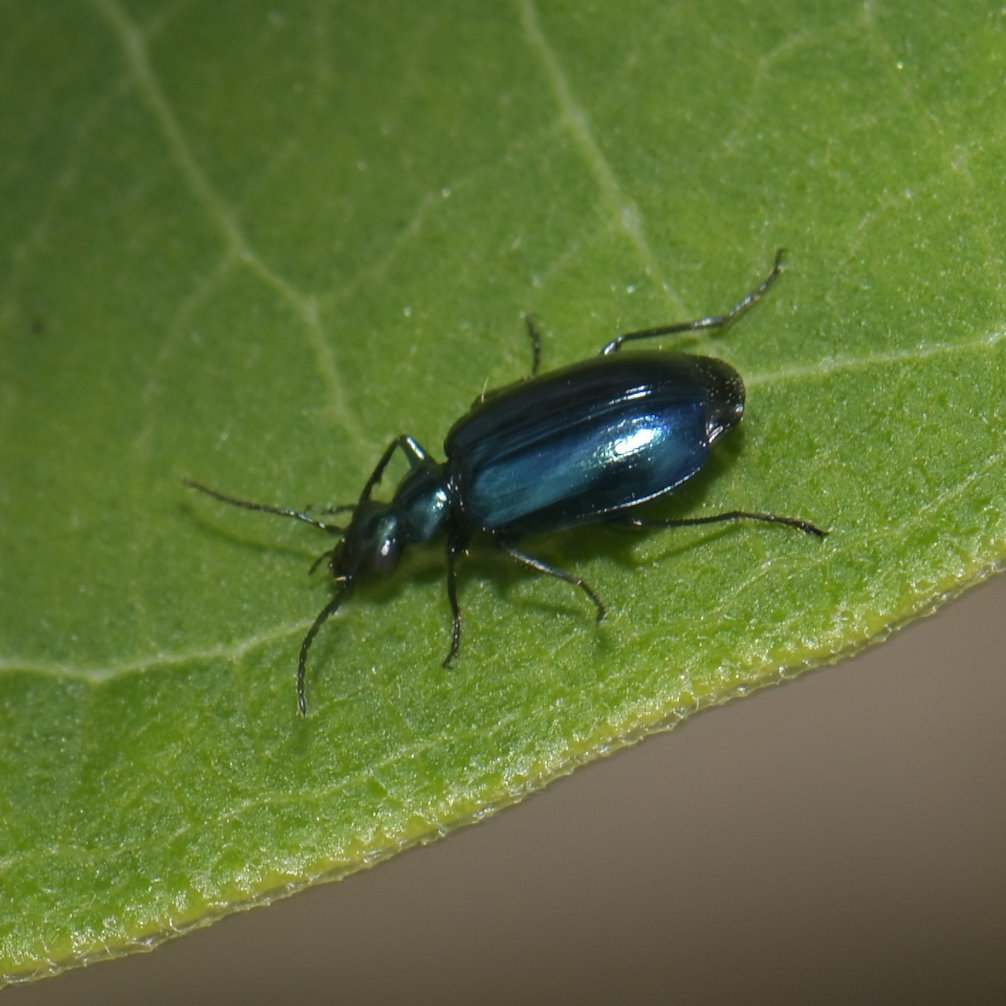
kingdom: Animalia
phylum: Arthropoda
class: Insecta
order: Coleoptera
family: Carabidae
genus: Lebia
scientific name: Lebia viridis
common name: Flower lebia beetle
